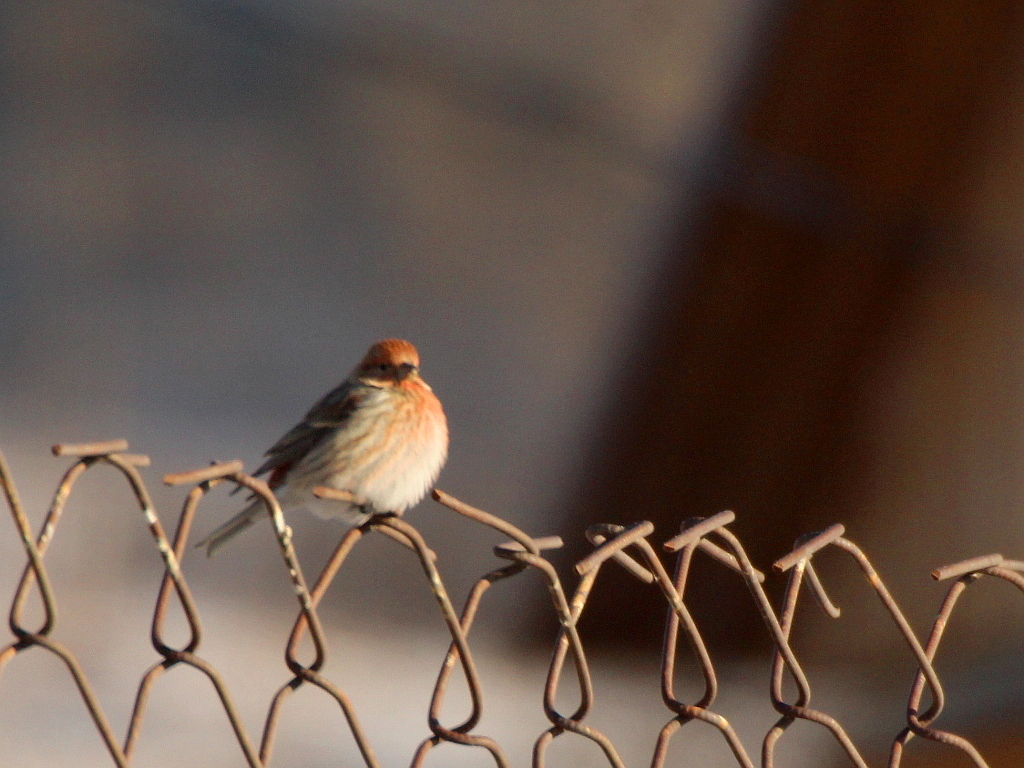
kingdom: Animalia
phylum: Chordata
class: Aves
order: Passeriformes
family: Fringillidae
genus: Carpodacus
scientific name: Carpodacus roseus
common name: Pallas's rosefinch
